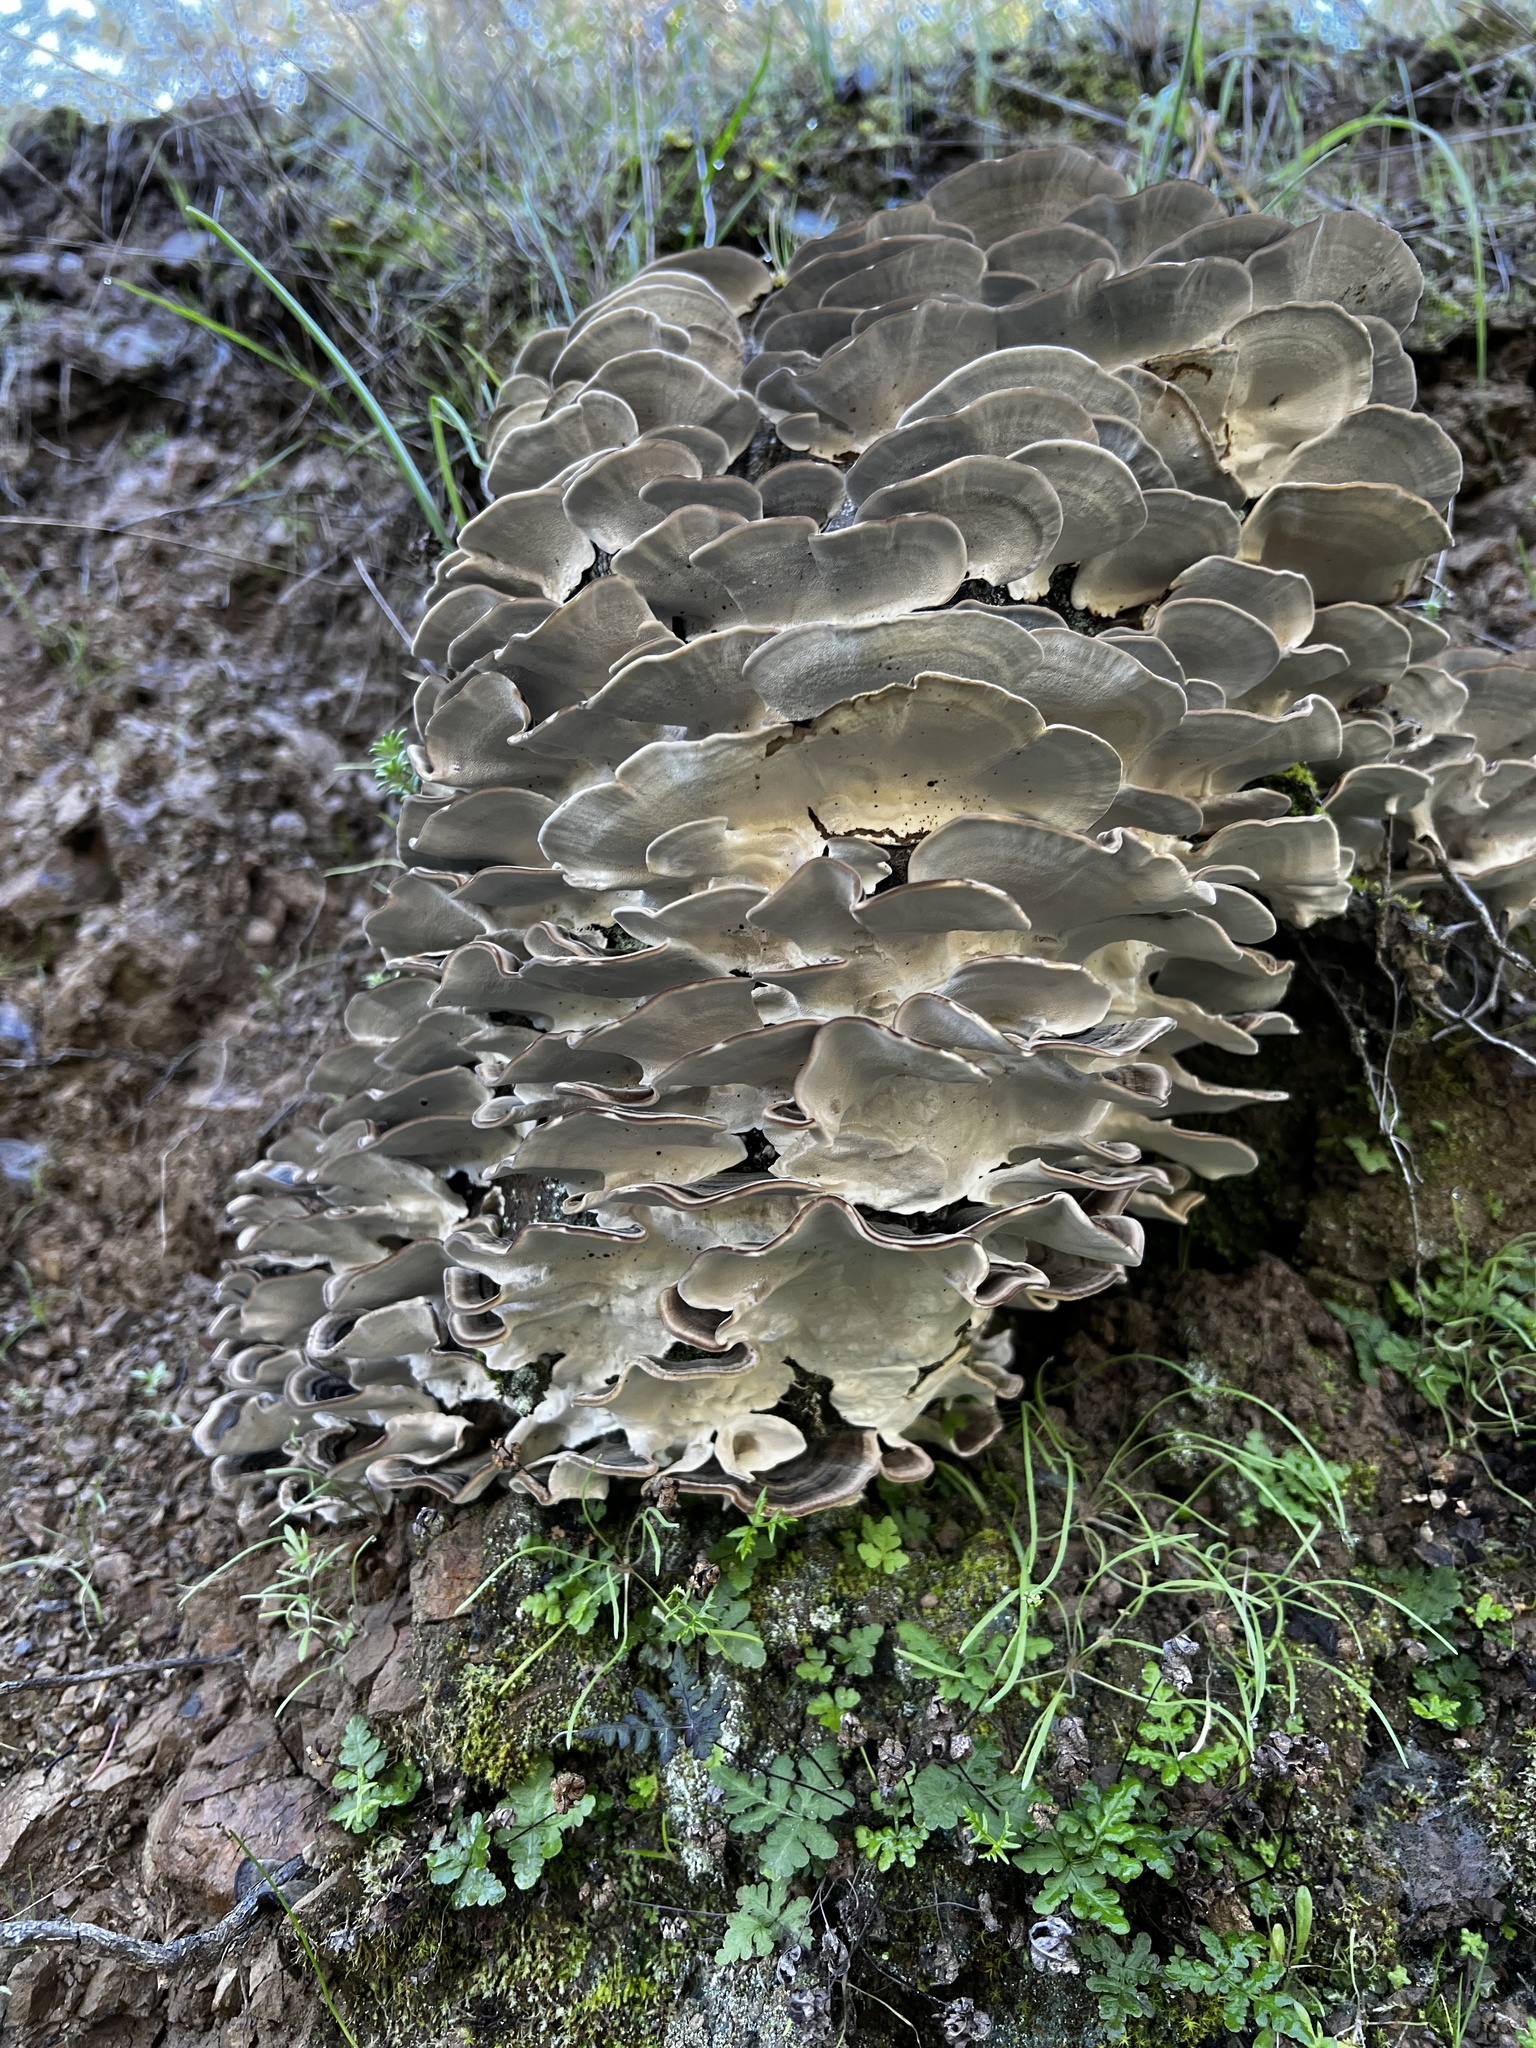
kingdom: Fungi
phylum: Basidiomycota
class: Agaricomycetes
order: Polyporales
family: Polyporaceae
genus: Trametes
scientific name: Trametes versicolor
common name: Turkeytail
